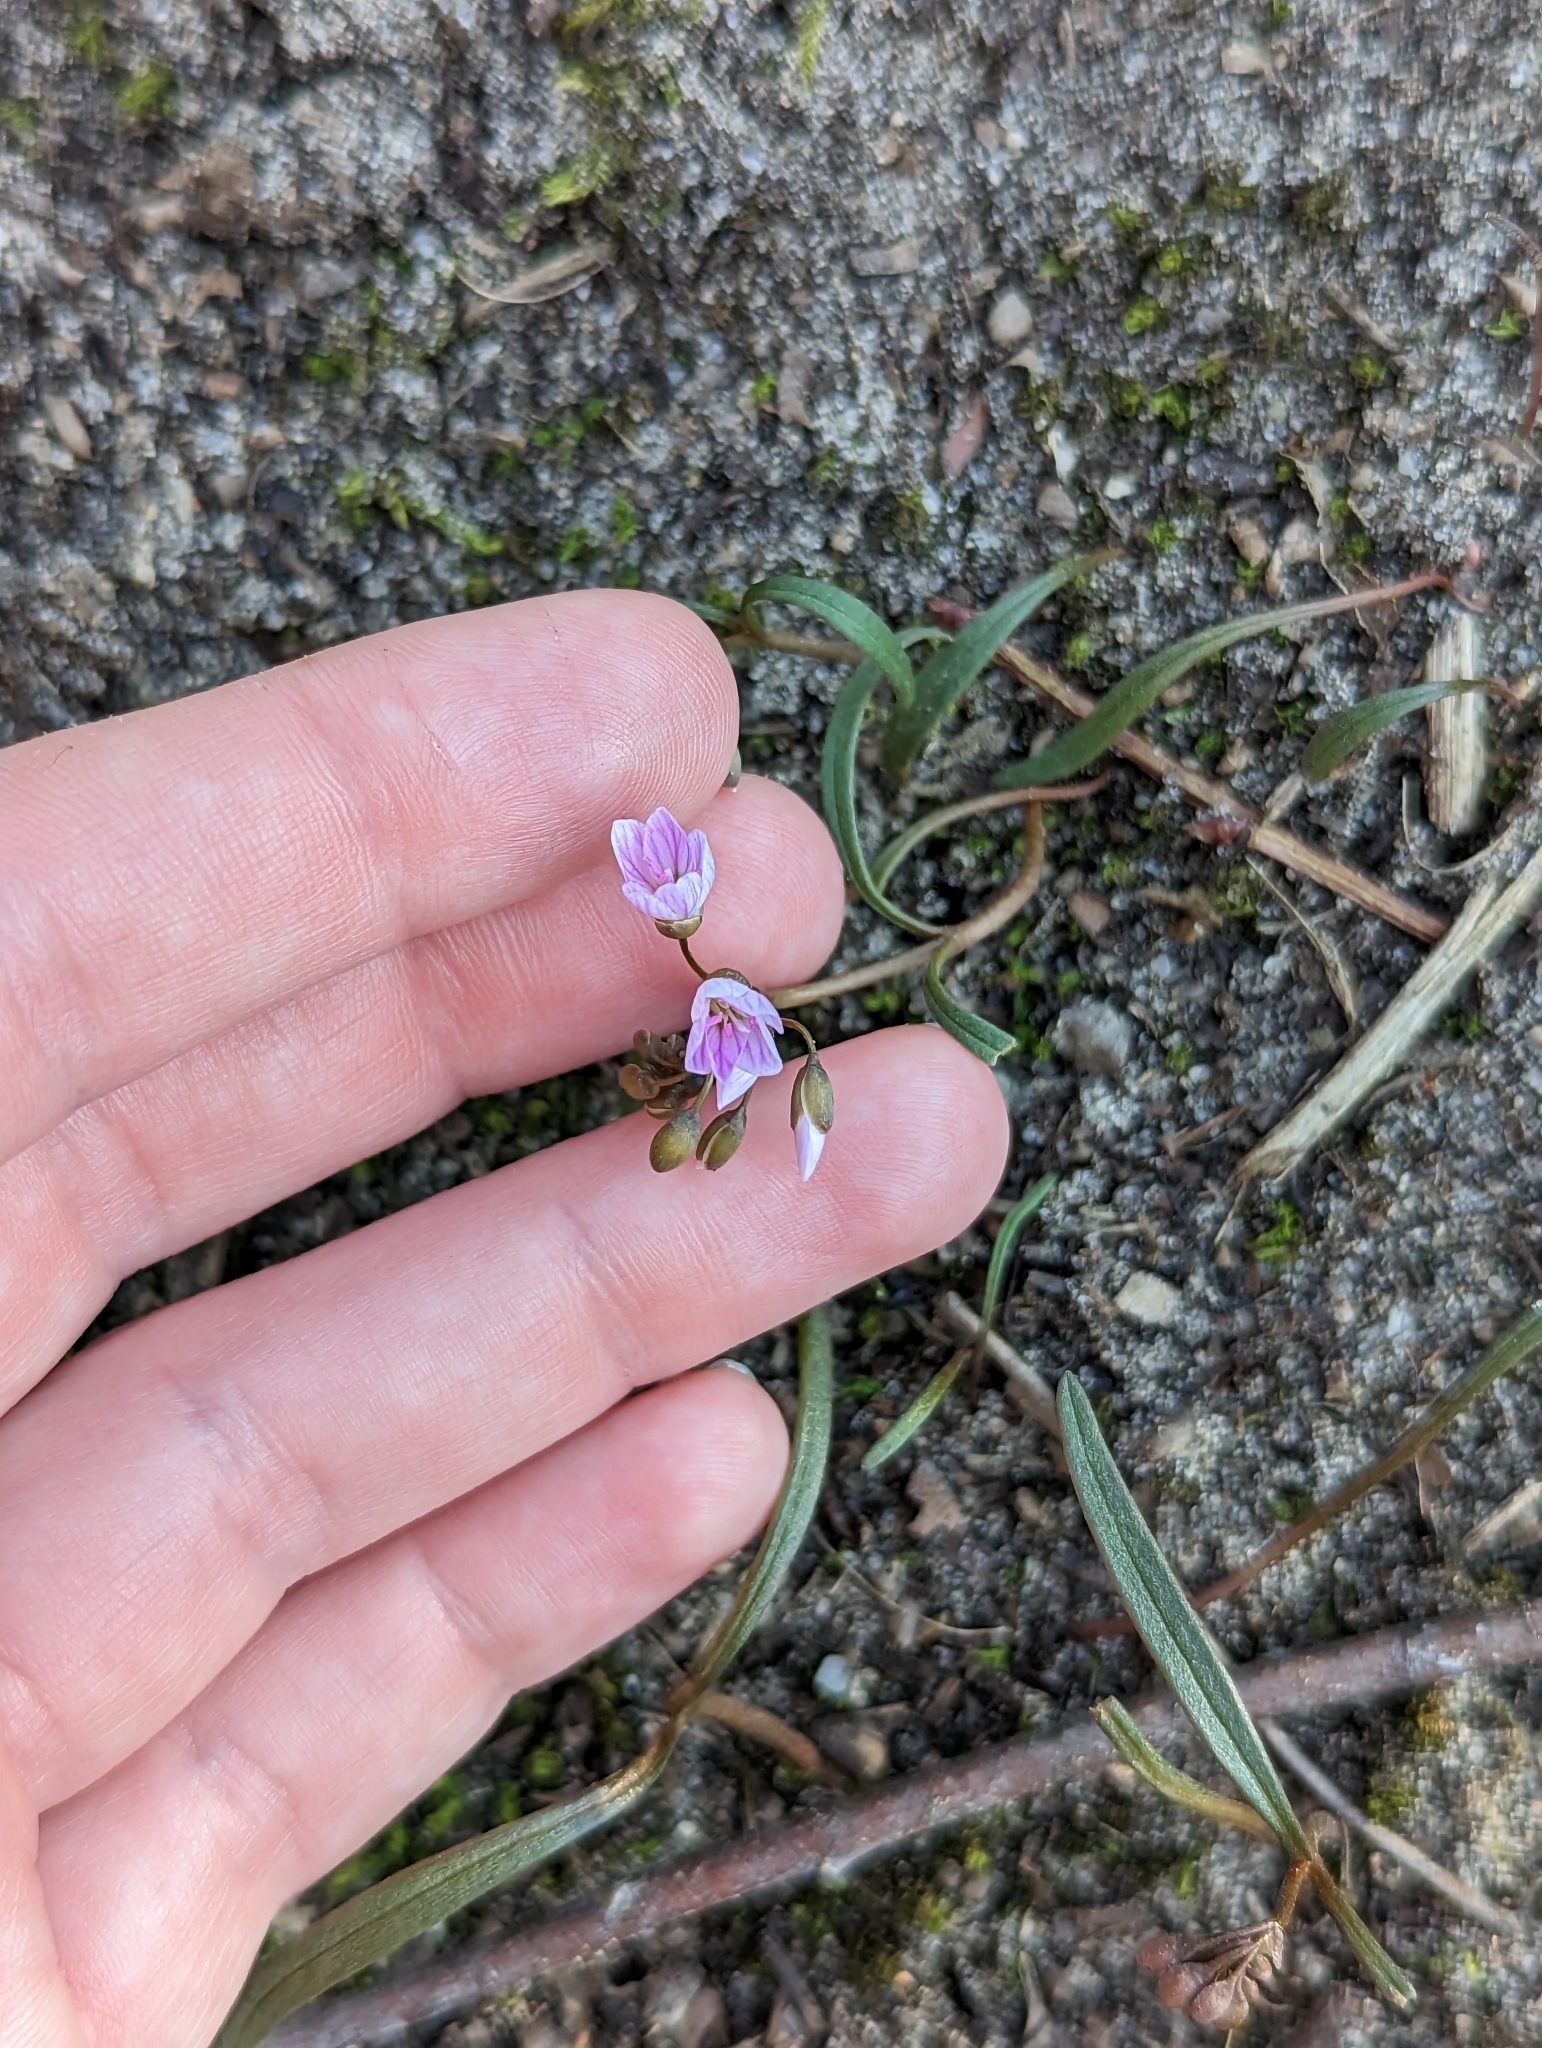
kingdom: Plantae
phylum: Tracheophyta
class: Magnoliopsida
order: Caryophyllales
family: Montiaceae
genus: Claytonia
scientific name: Claytonia virginica
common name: Virginia springbeauty
